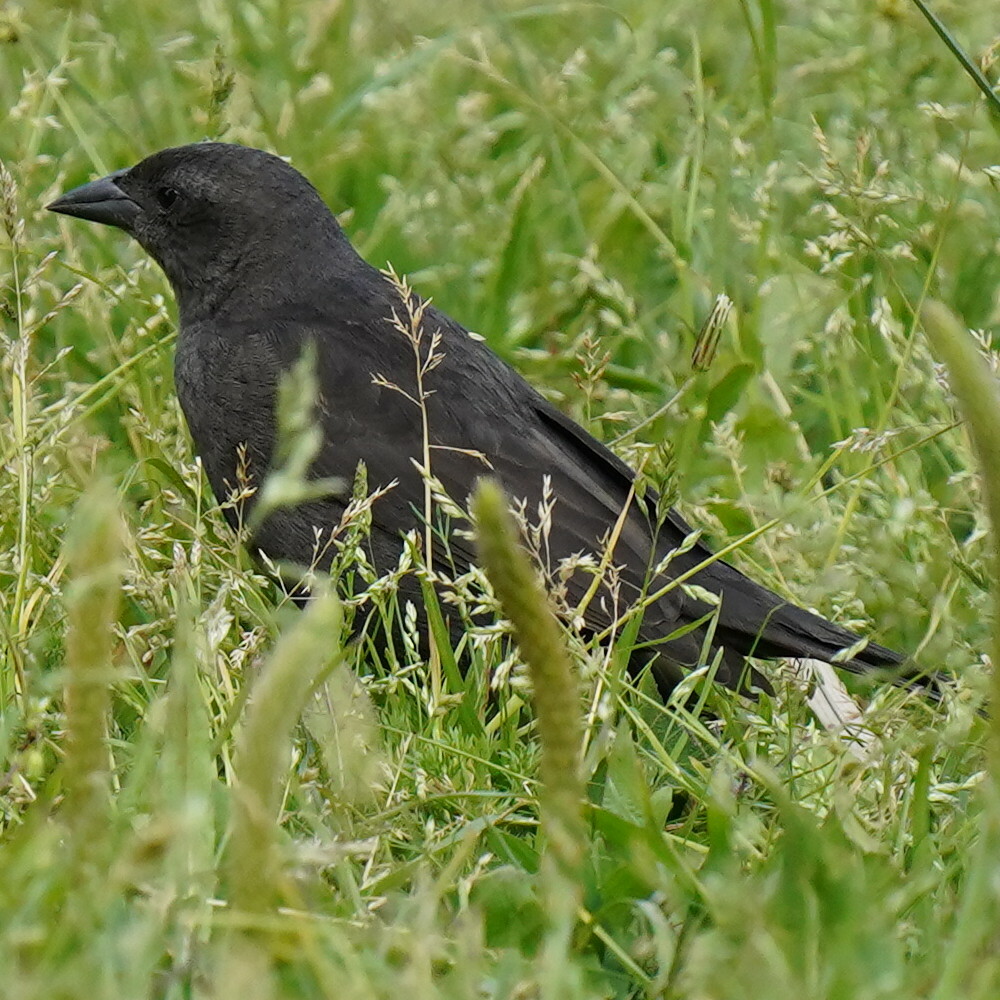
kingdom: Animalia
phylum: Chordata
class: Aves
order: Passeriformes
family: Icteridae
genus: Molothrus
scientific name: Molothrus bonariensis
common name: Shiny cowbird
